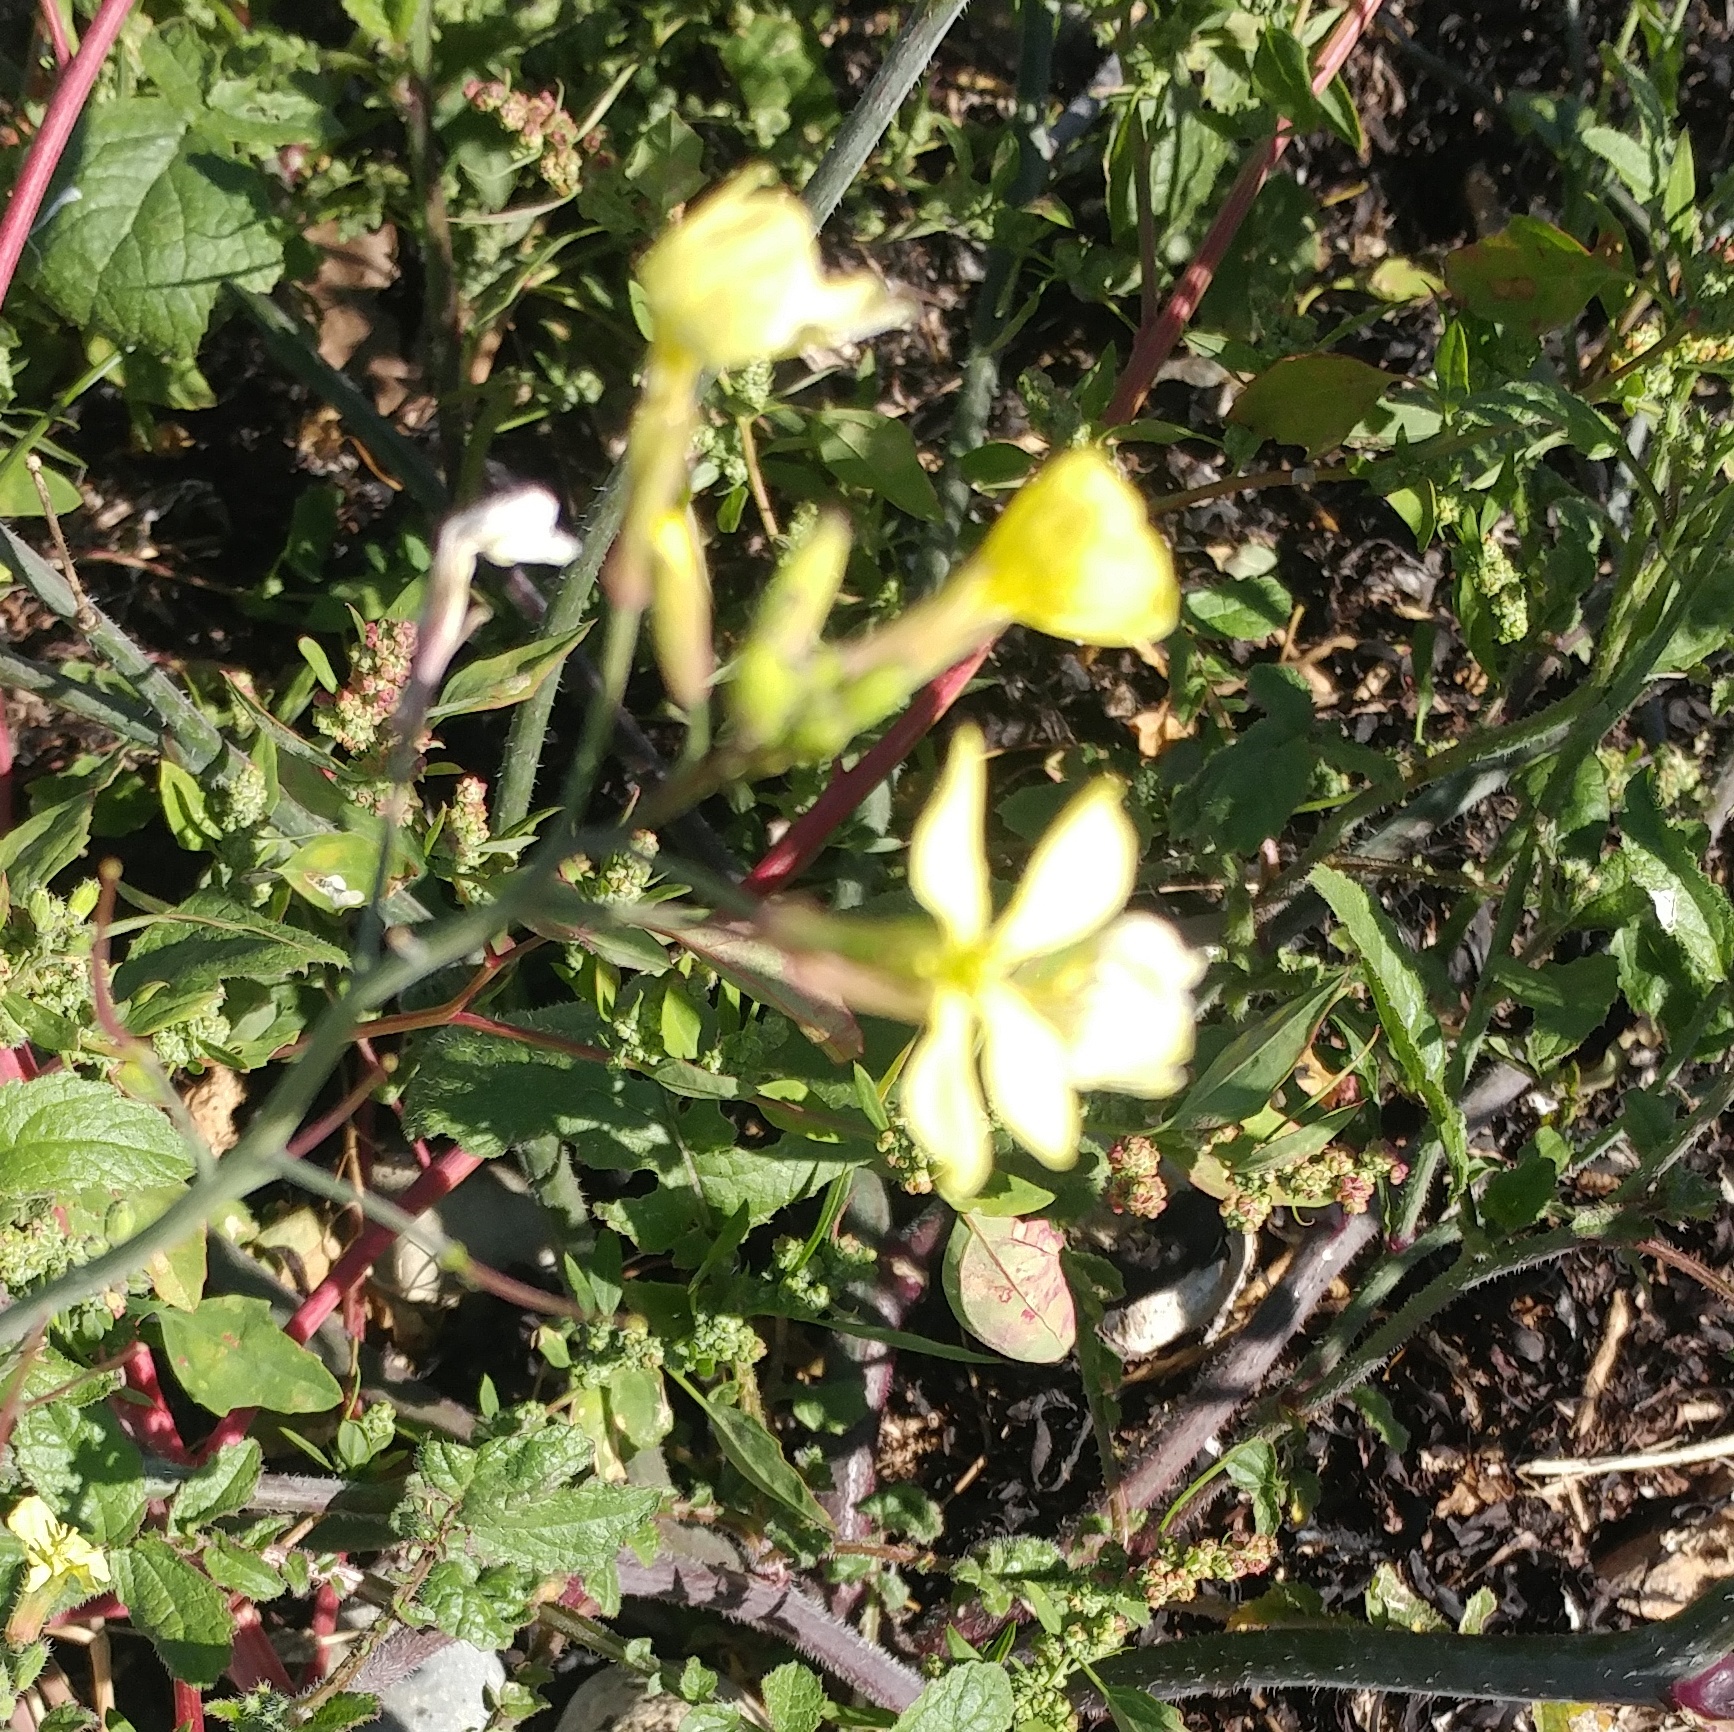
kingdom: Plantae
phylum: Tracheophyta
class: Magnoliopsida
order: Brassicales
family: Brassicaceae
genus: Raphanus
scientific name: Raphanus raphanistrum
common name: Wild radish
